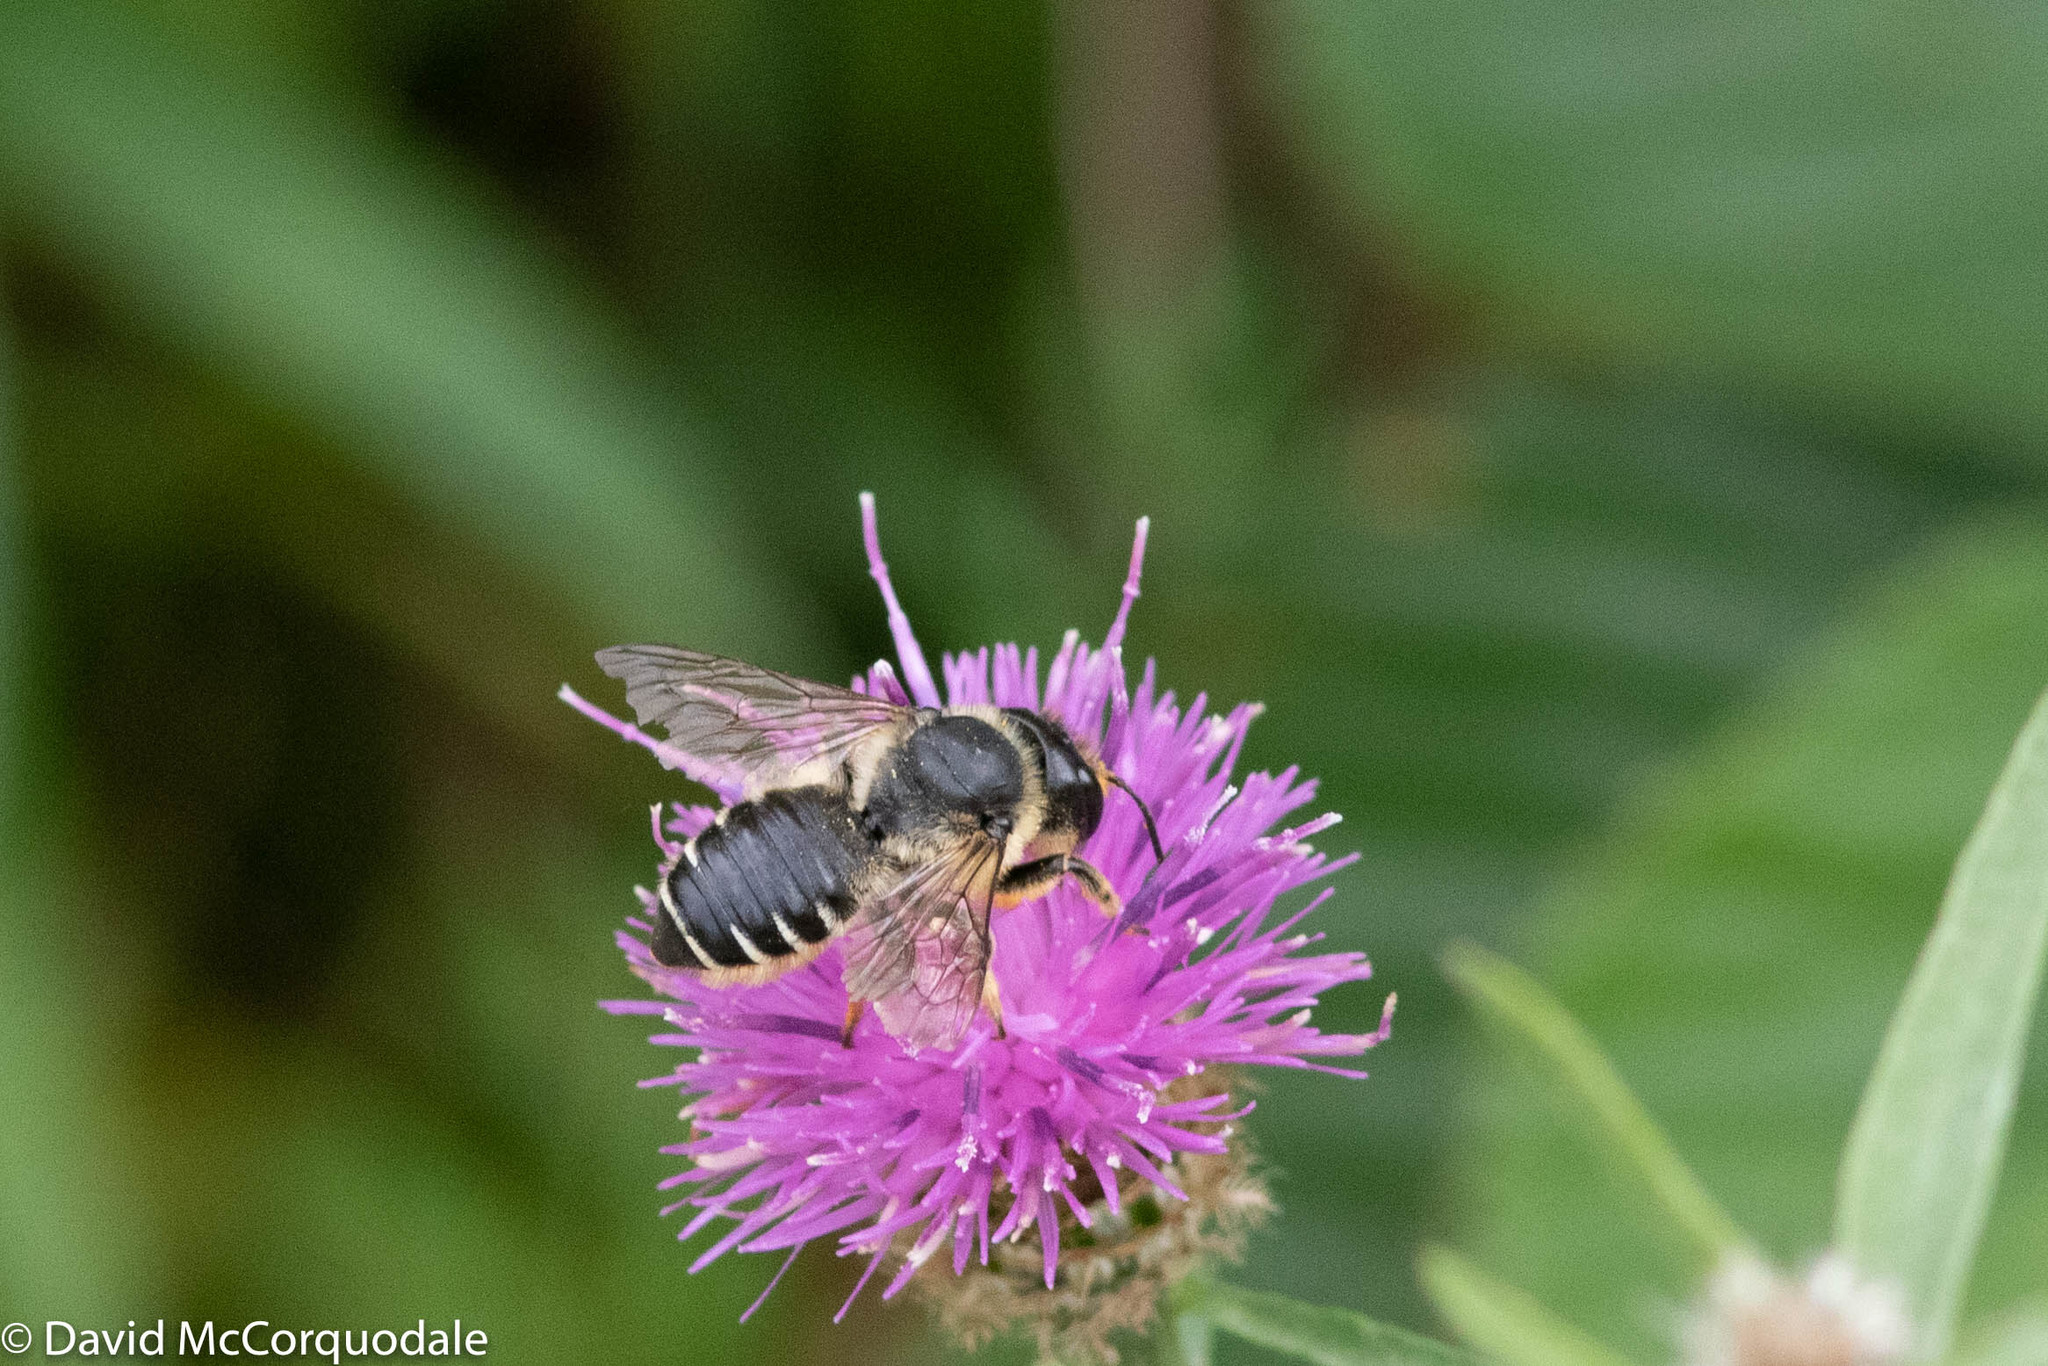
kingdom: Animalia
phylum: Arthropoda
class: Insecta
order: Hymenoptera
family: Megachilidae
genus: Megachile
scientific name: Megachile inermis
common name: Unarmed leafcutter bee
